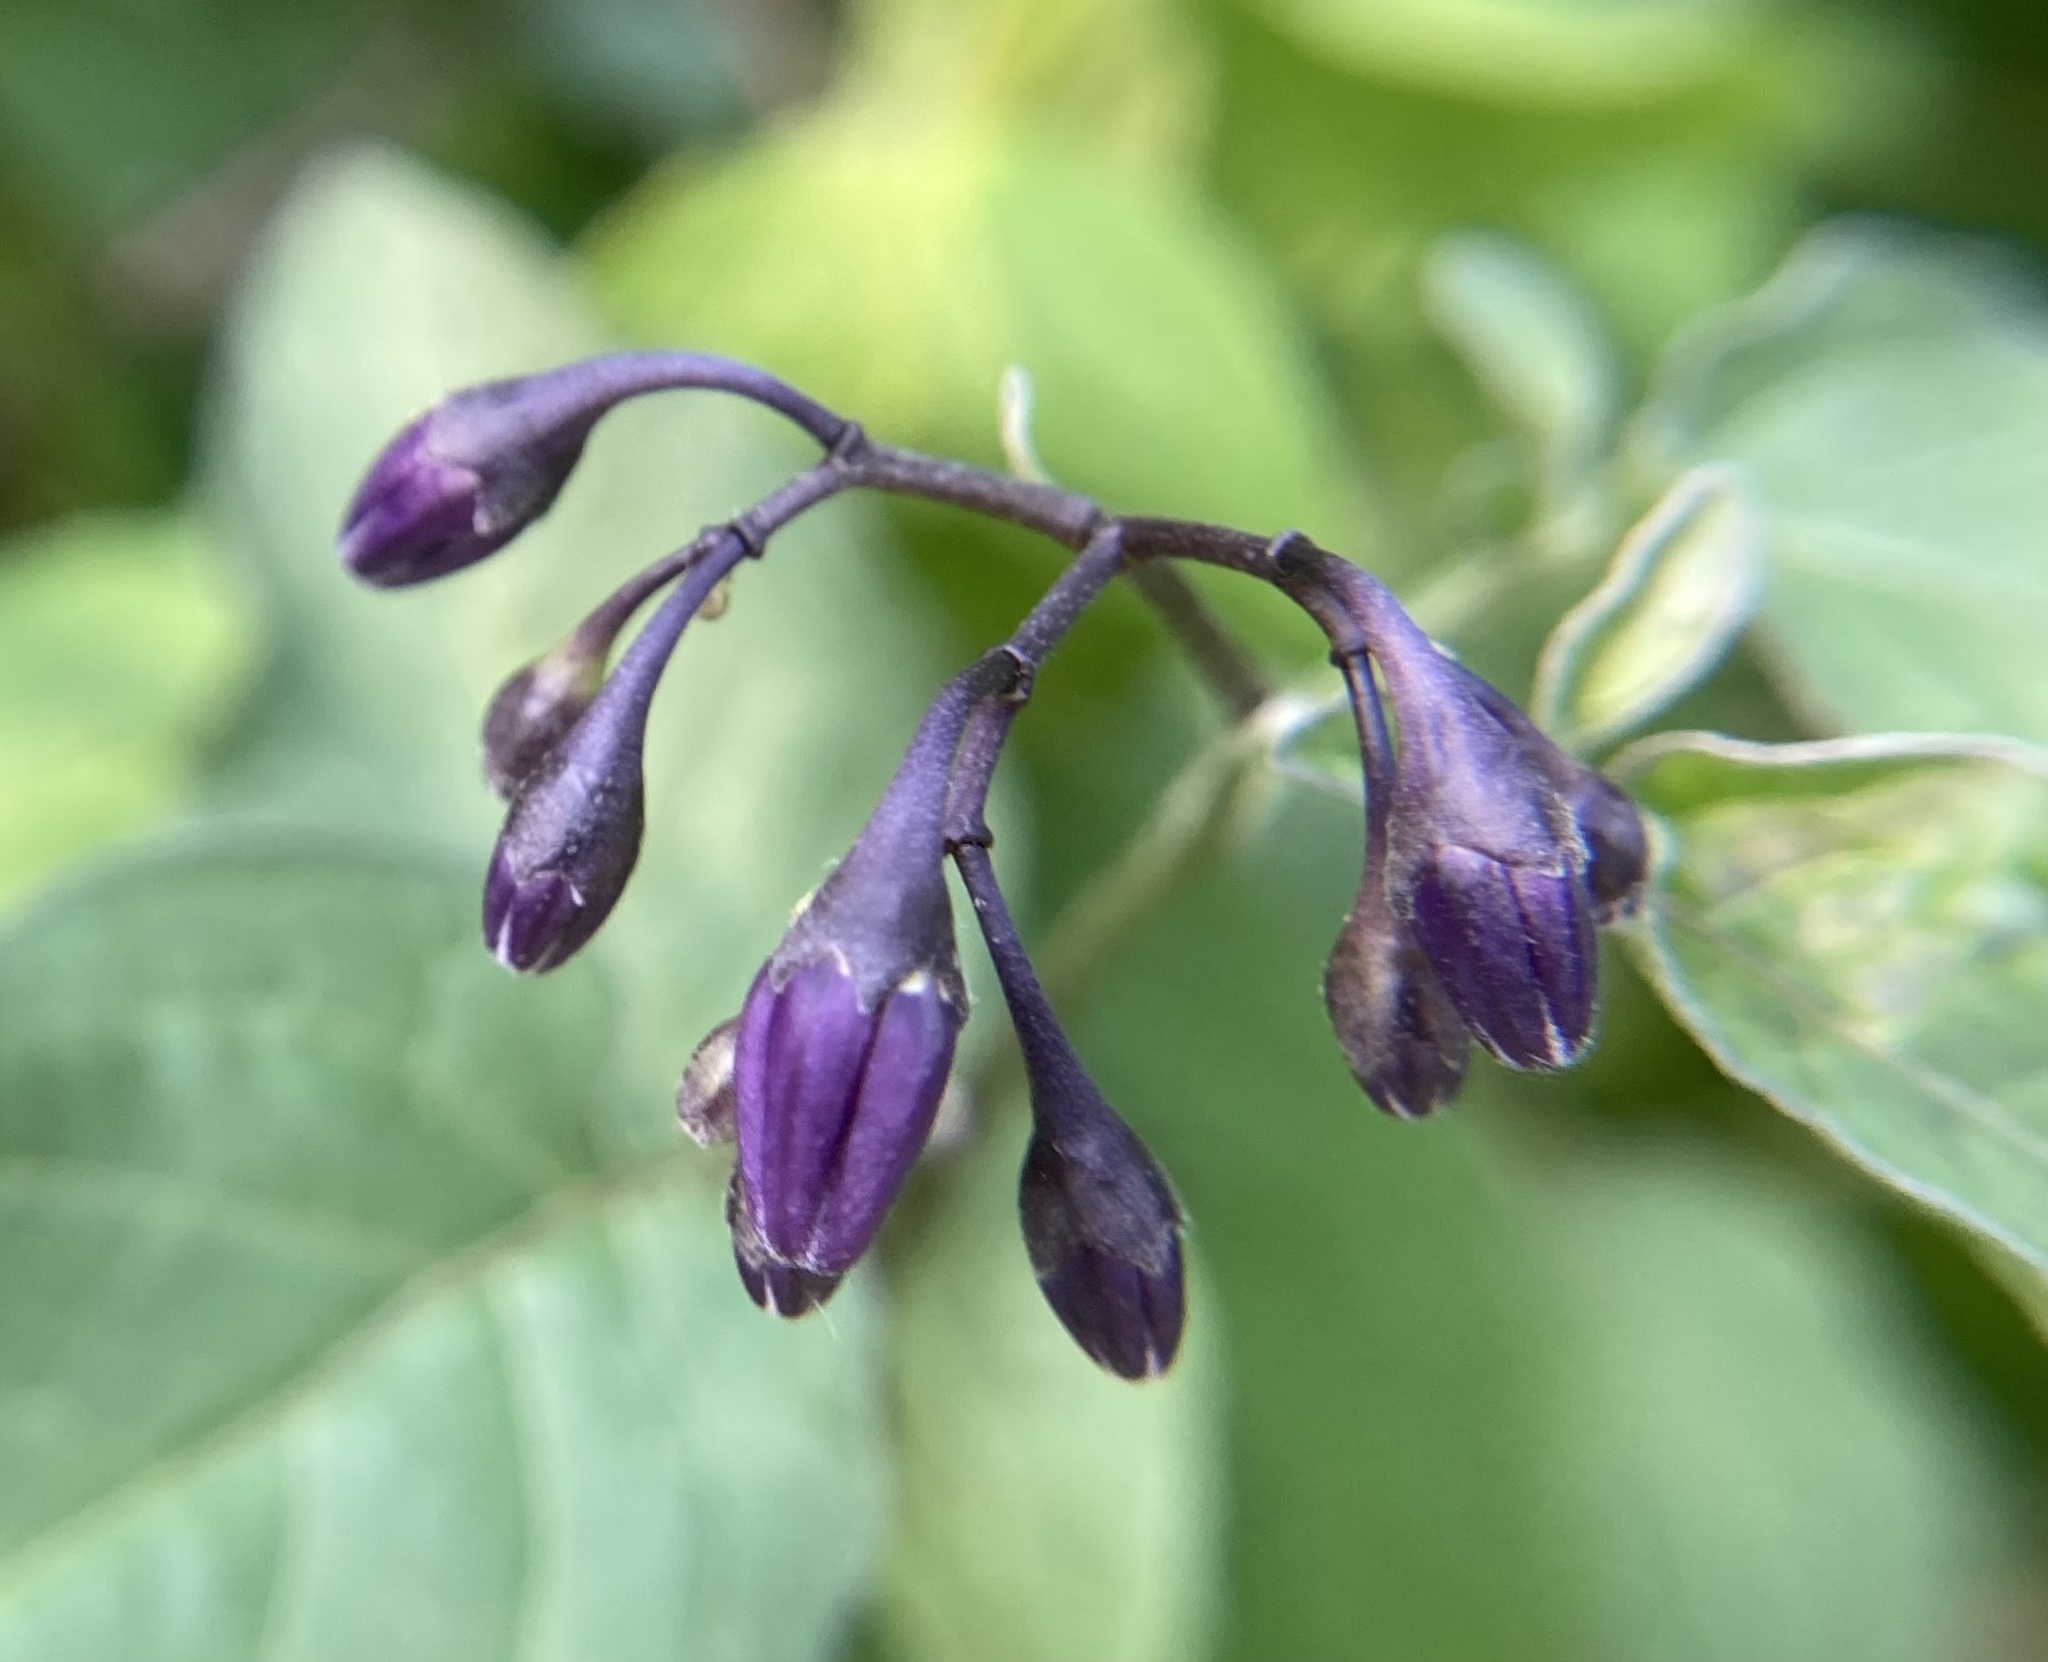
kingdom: Plantae
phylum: Tracheophyta
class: Magnoliopsida
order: Solanales
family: Solanaceae
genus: Solanum
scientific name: Solanum dulcamara
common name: Climbing nightshade
